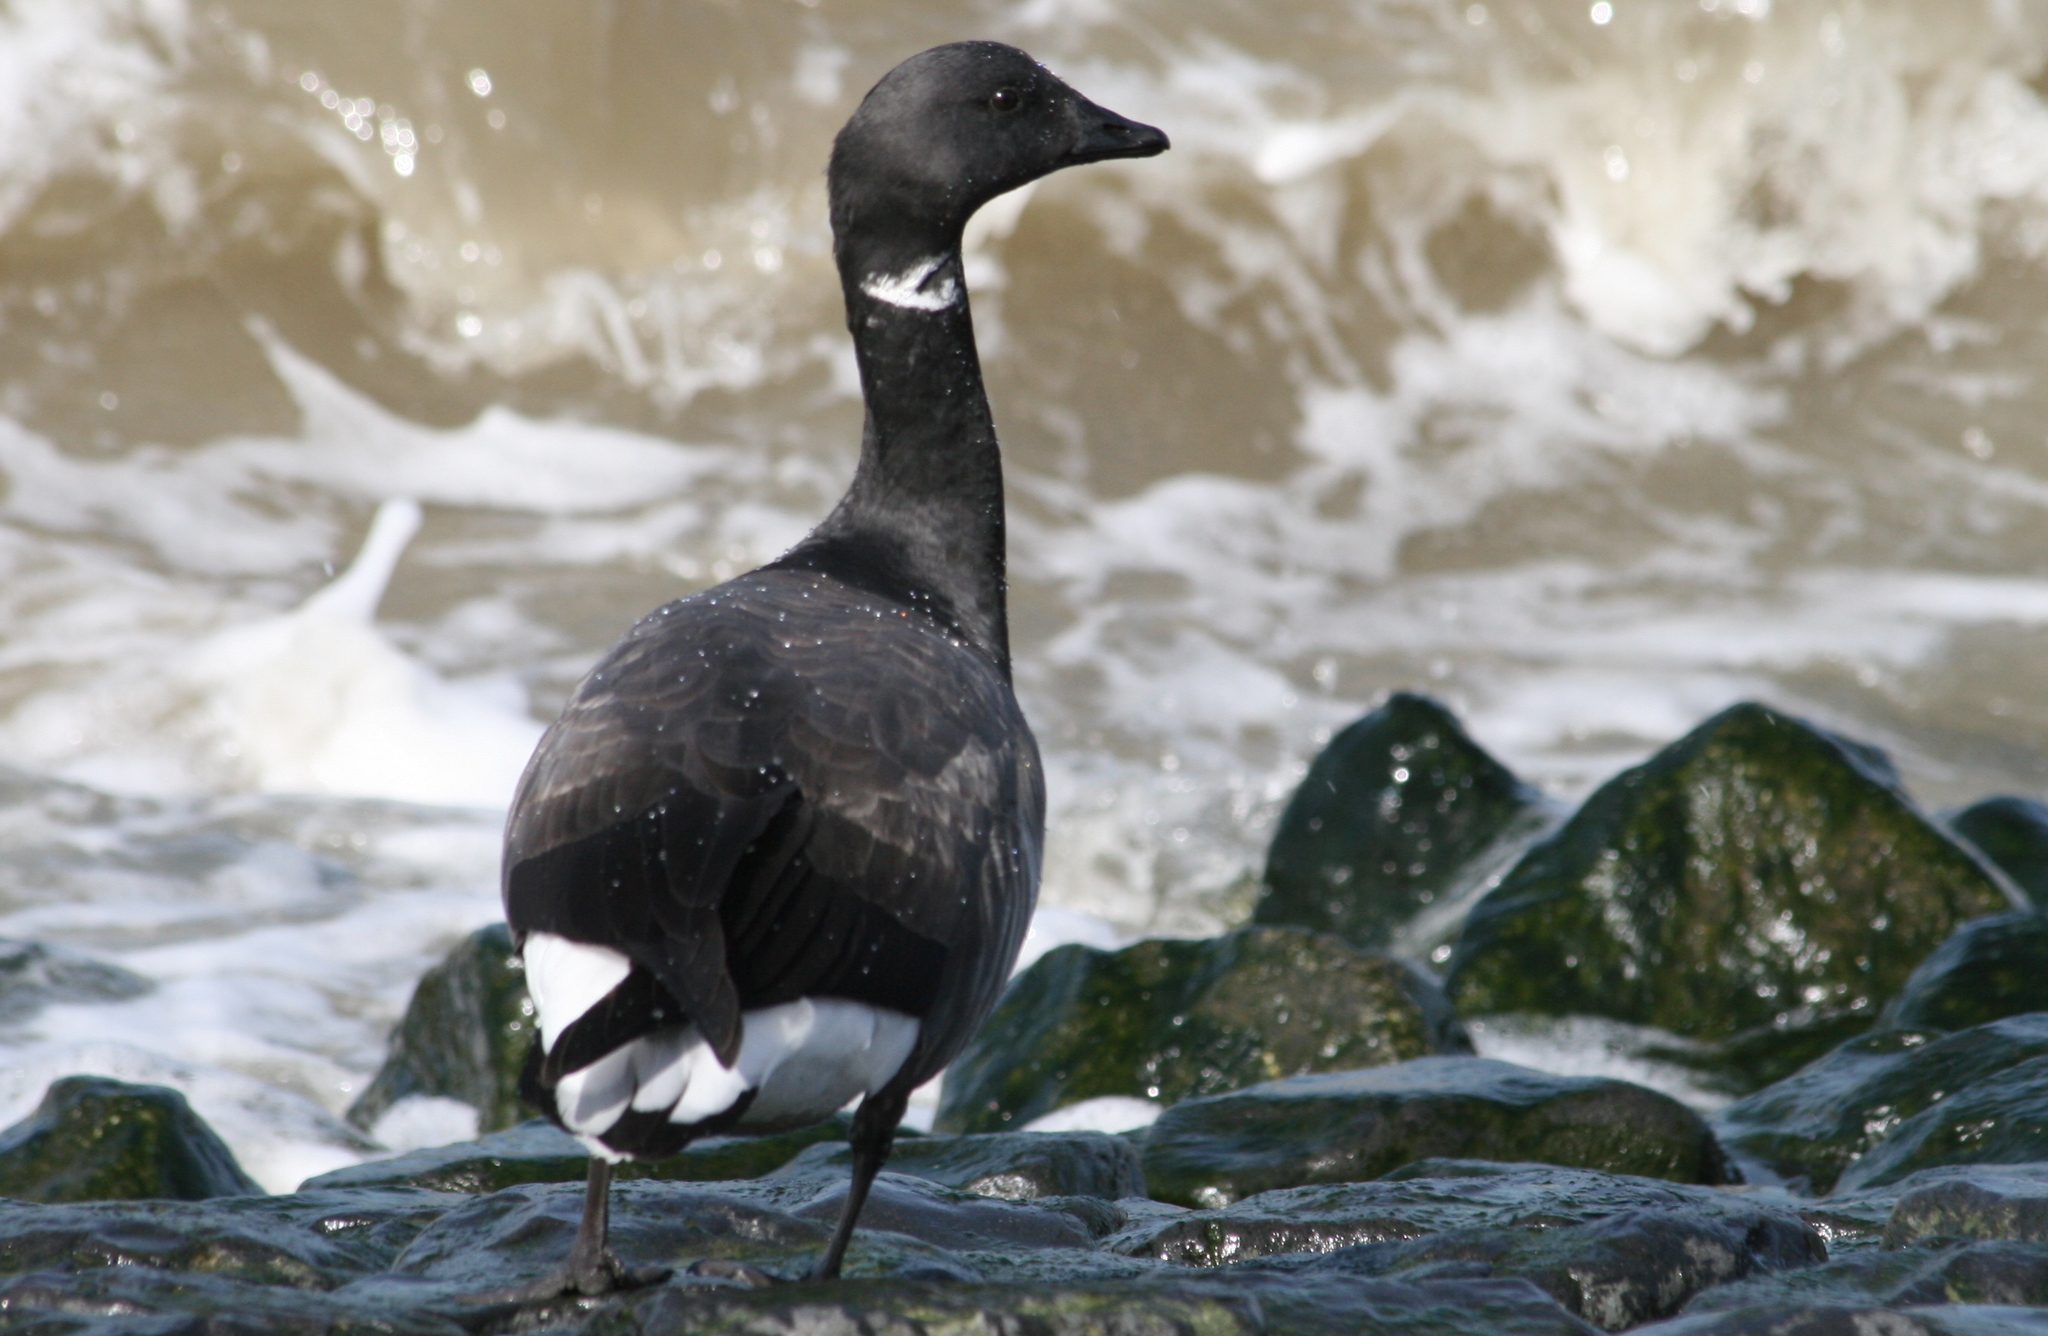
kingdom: Animalia
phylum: Chordata
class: Aves
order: Anseriformes
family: Anatidae
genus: Branta
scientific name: Branta bernicla
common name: Brant goose
